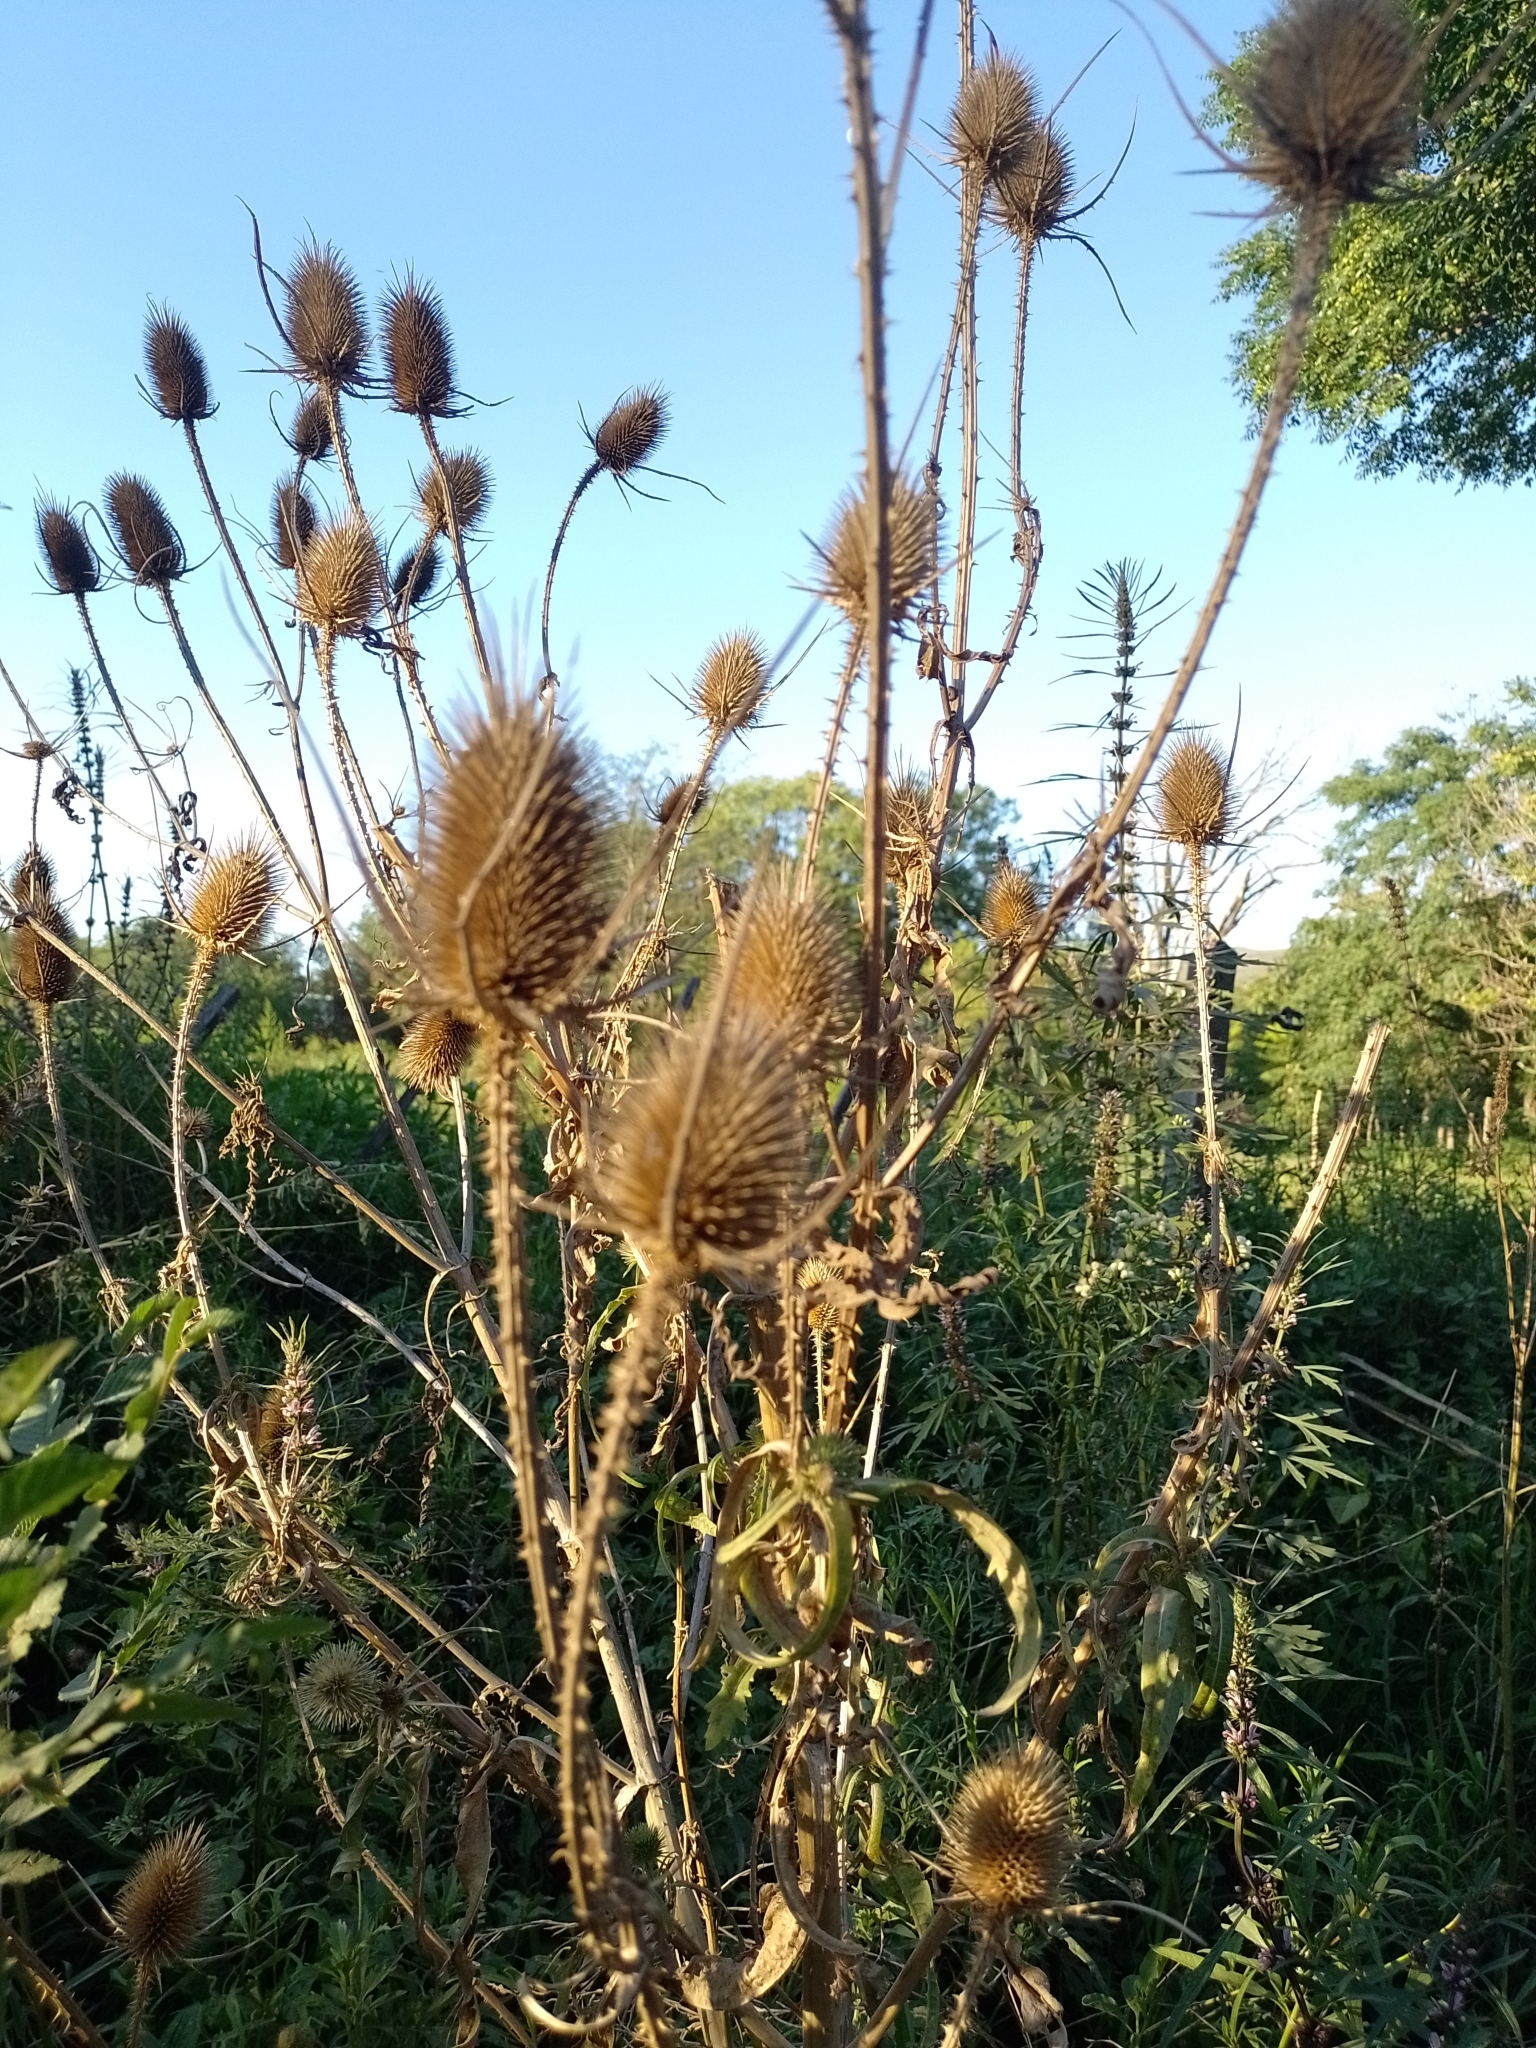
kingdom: Plantae
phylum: Tracheophyta
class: Magnoliopsida
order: Dipsacales
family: Caprifoliaceae
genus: Dipsacus
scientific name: Dipsacus fullonum
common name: Teasel
